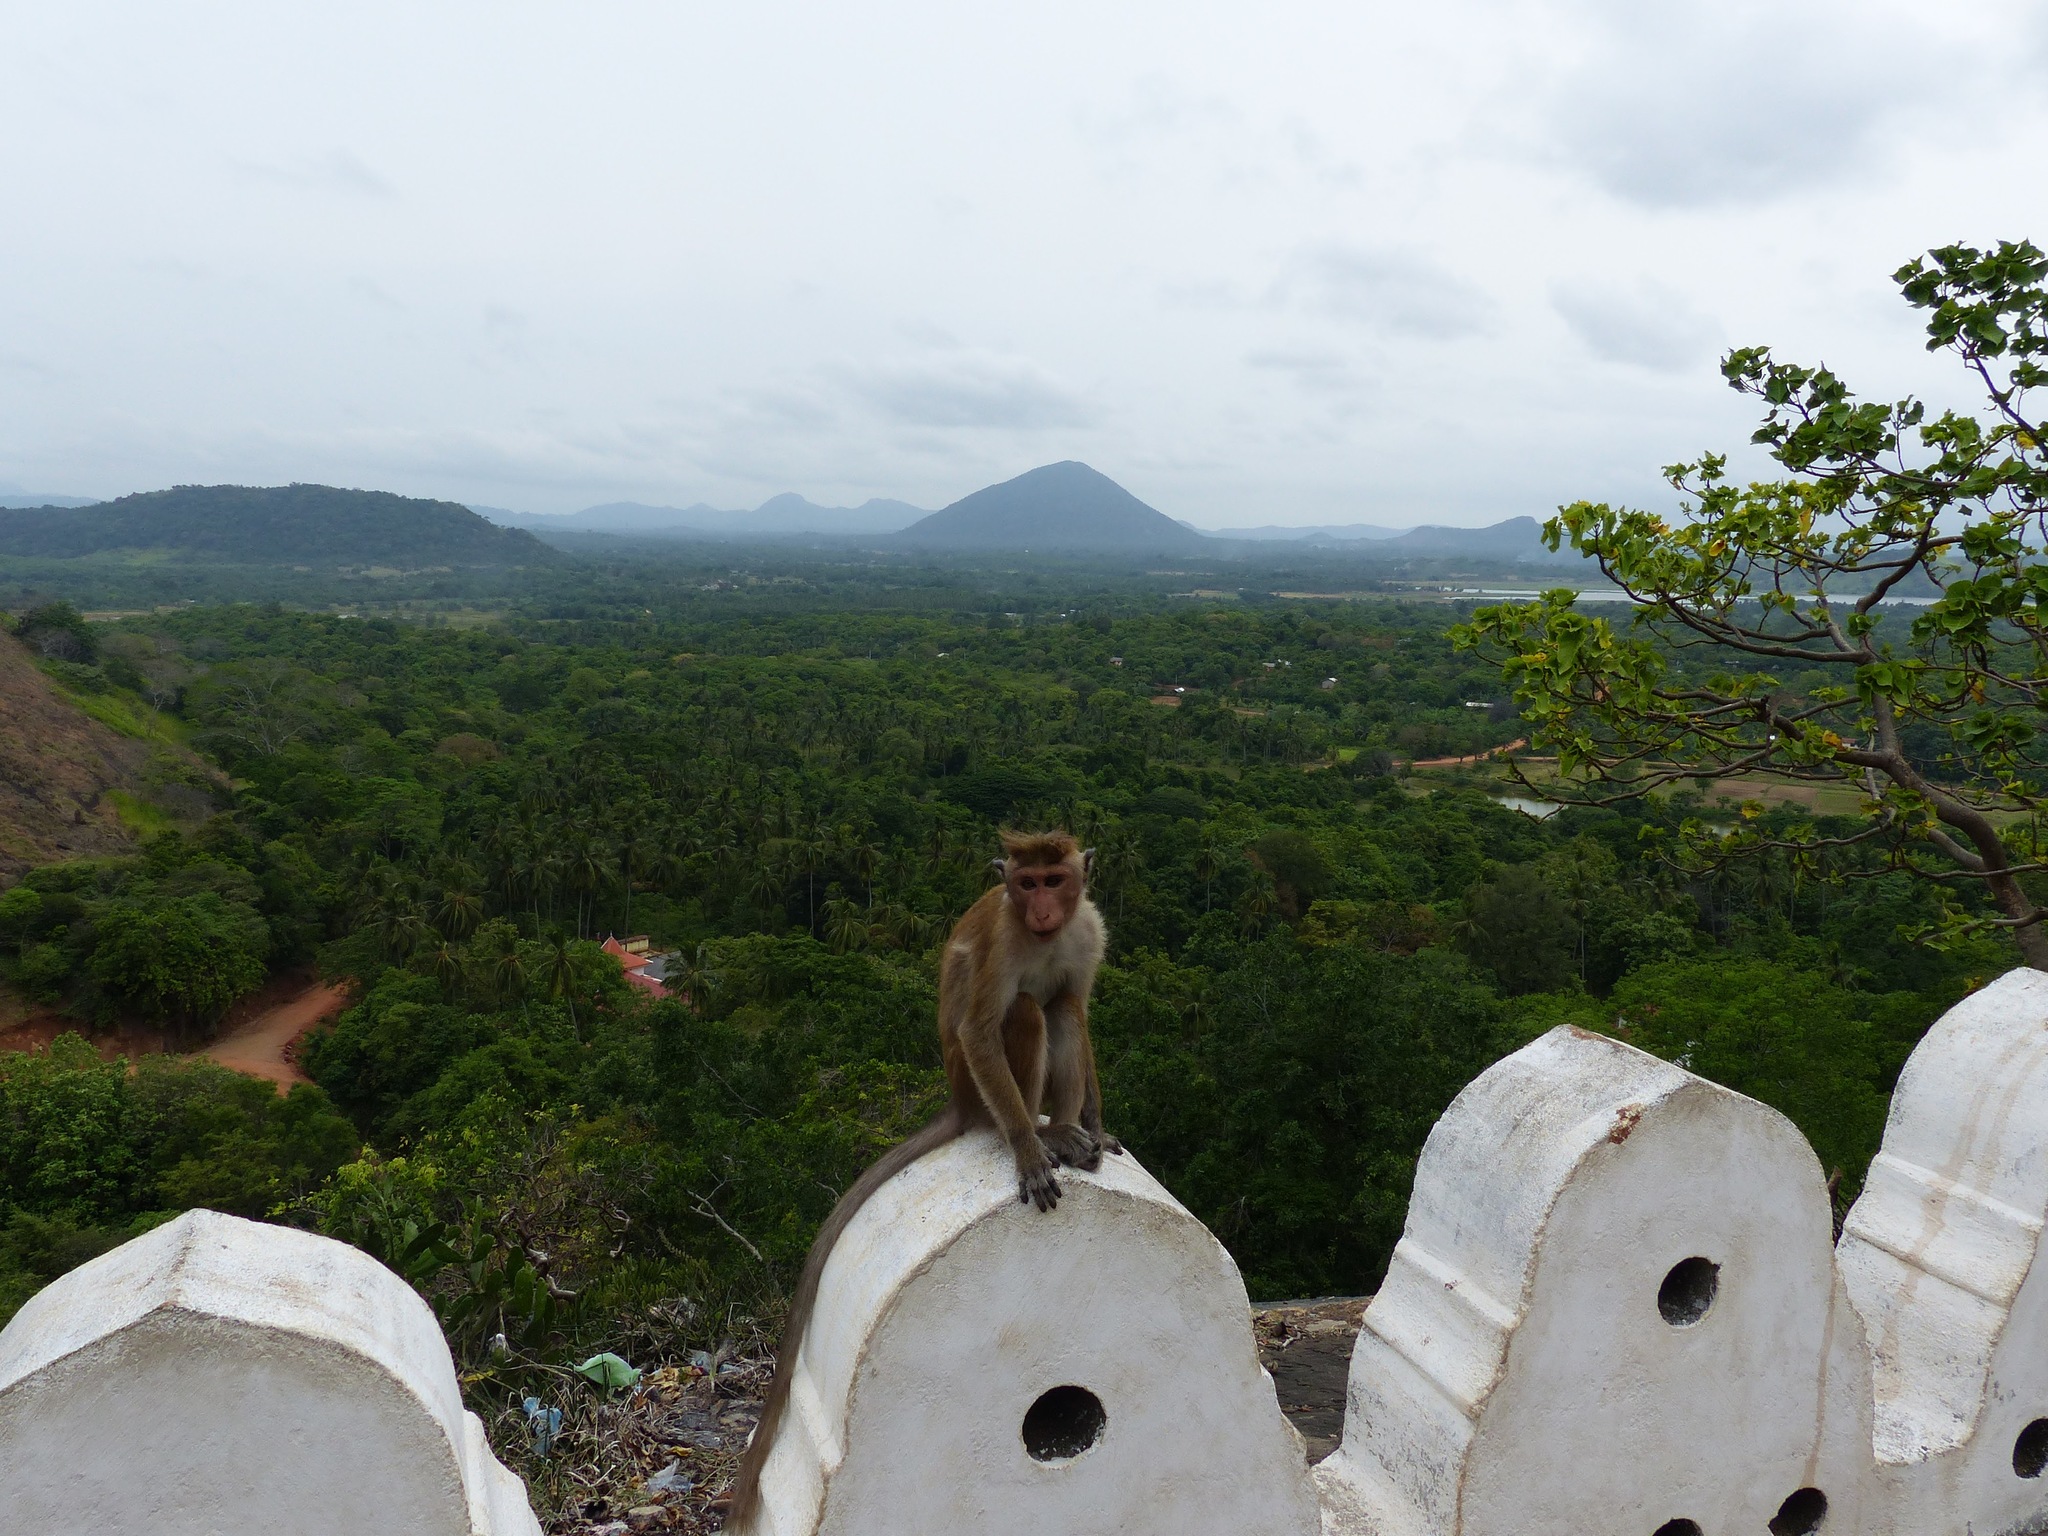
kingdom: Animalia
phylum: Chordata
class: Mammalia
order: Primates
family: Cercopithecidae
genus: Macaca
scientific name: Macaca sinica
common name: Toque macaque
